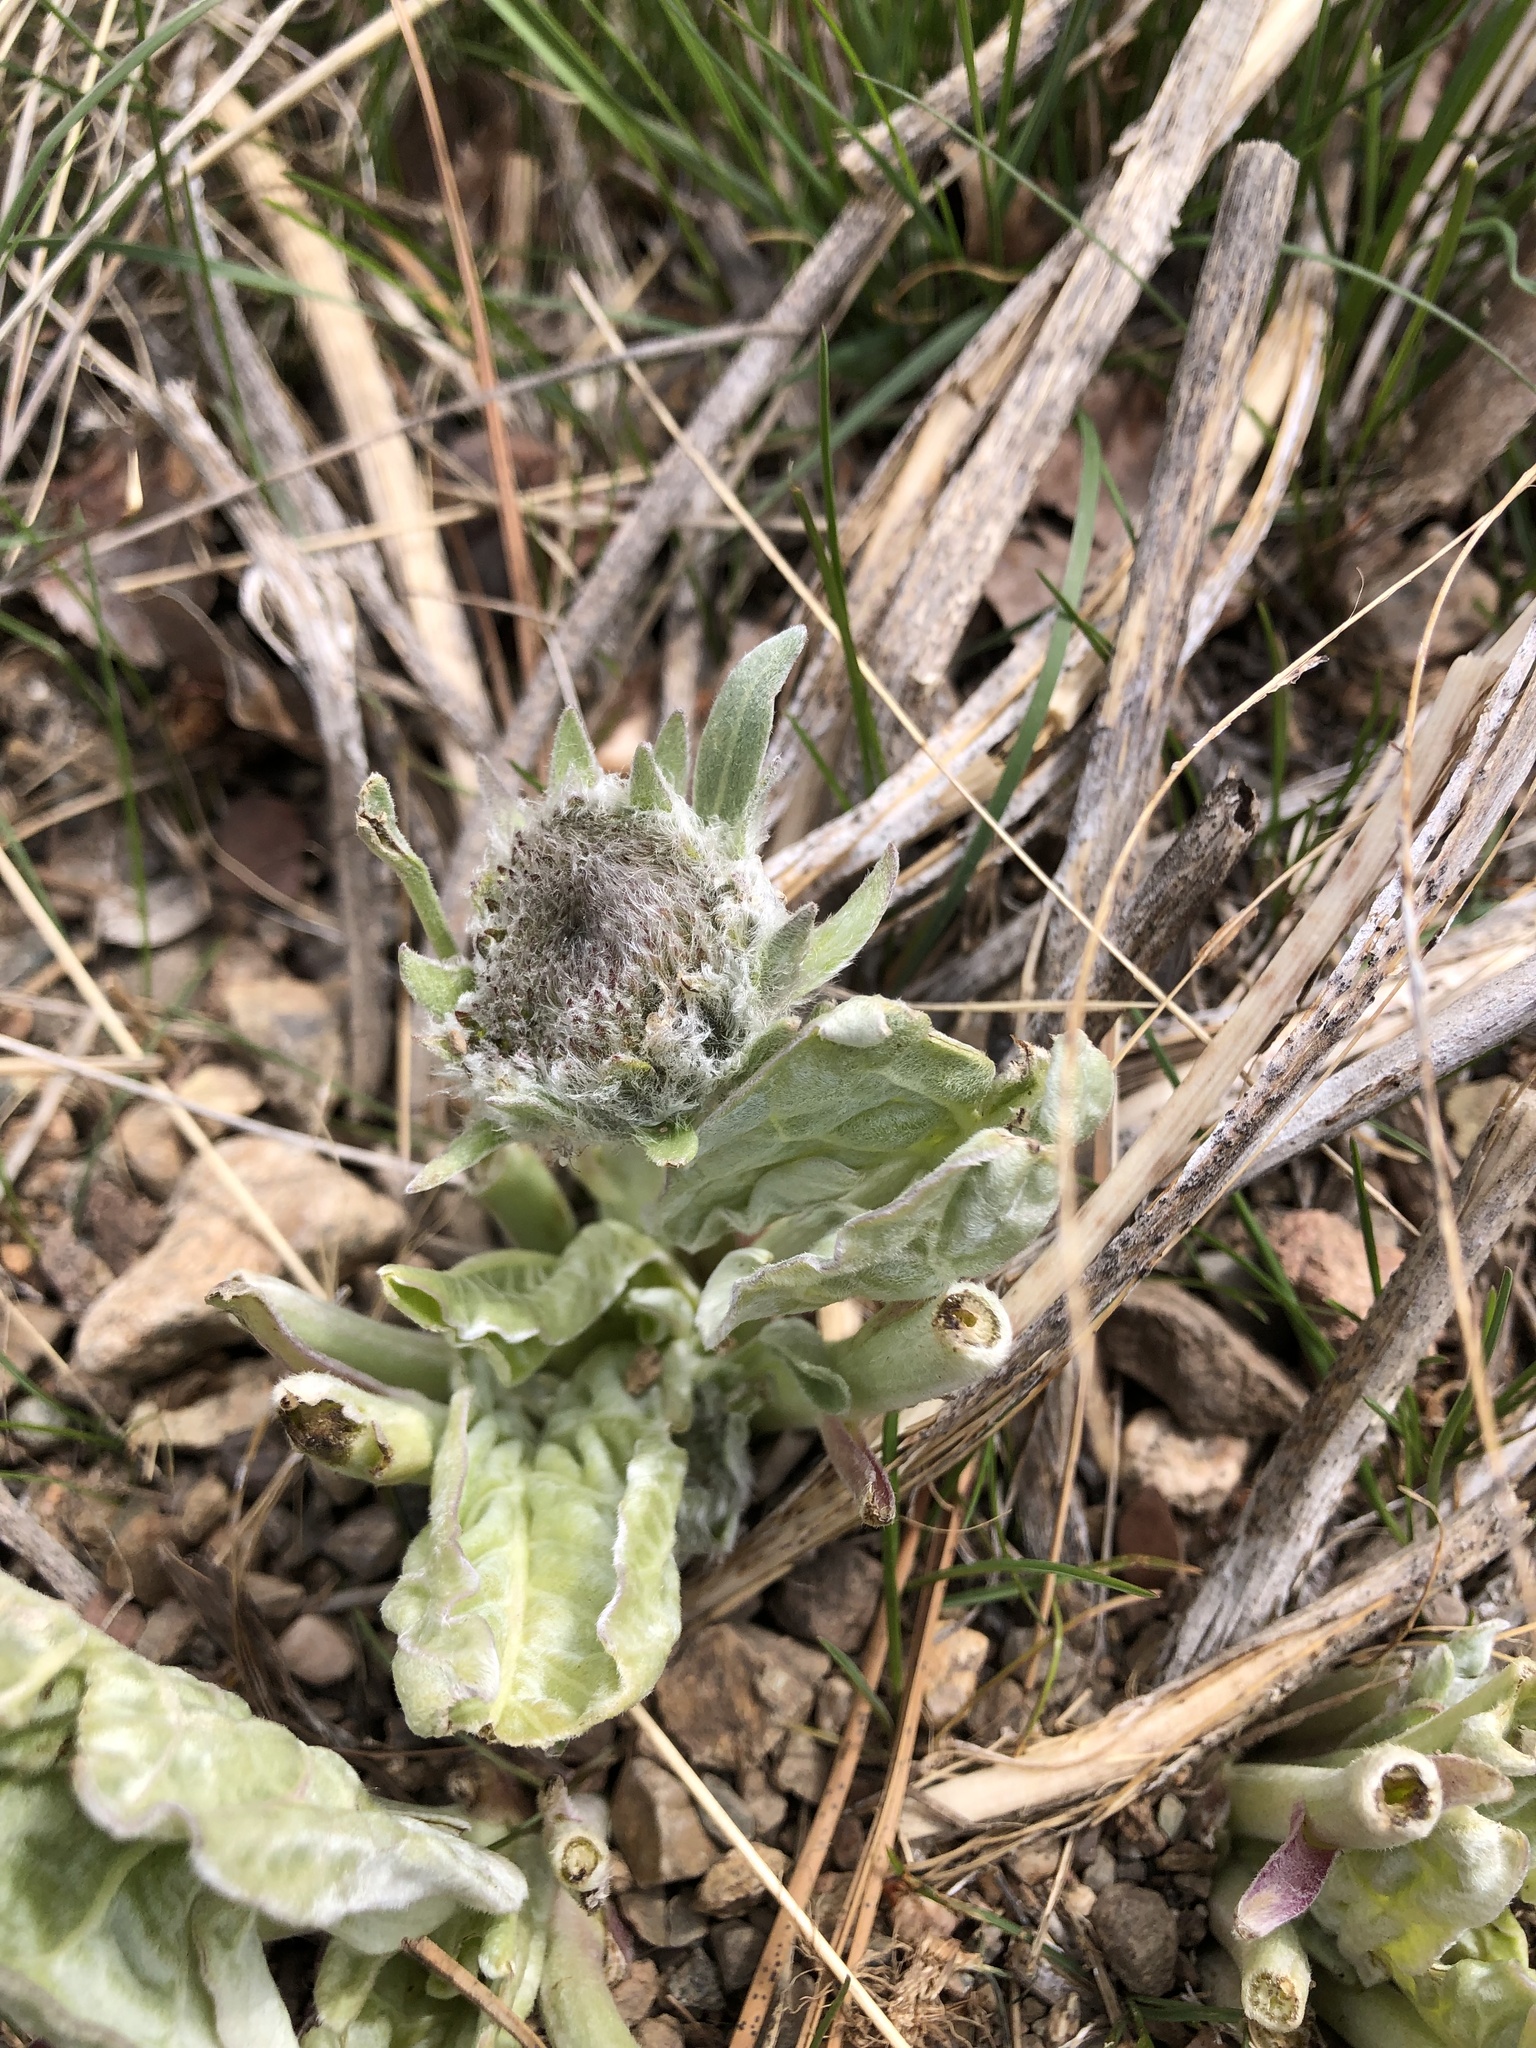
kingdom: Plantae
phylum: Tracheophyta
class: Magnoliopsida
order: Asterales
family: Asteraceae
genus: Wyethia
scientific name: Wyethia sagittata
